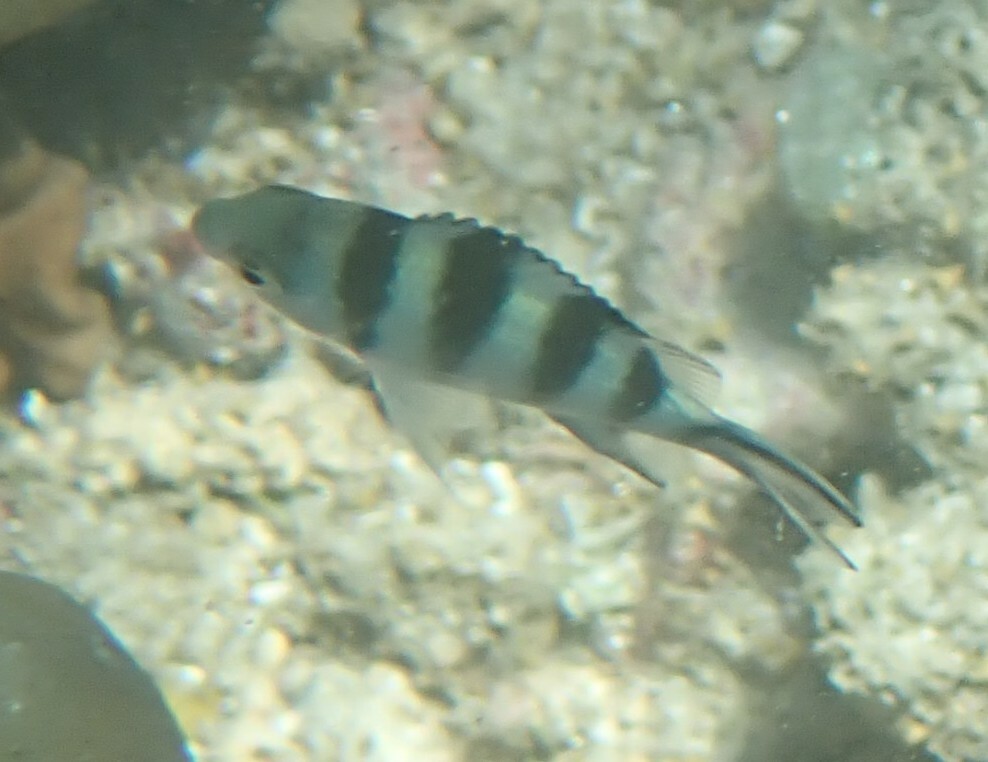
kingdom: Animalia
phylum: Chordata
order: Perciformes
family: Pomacentridae
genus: Abudefduf
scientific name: Abudefduf sexfasciatus
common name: Scissortail sergeant
